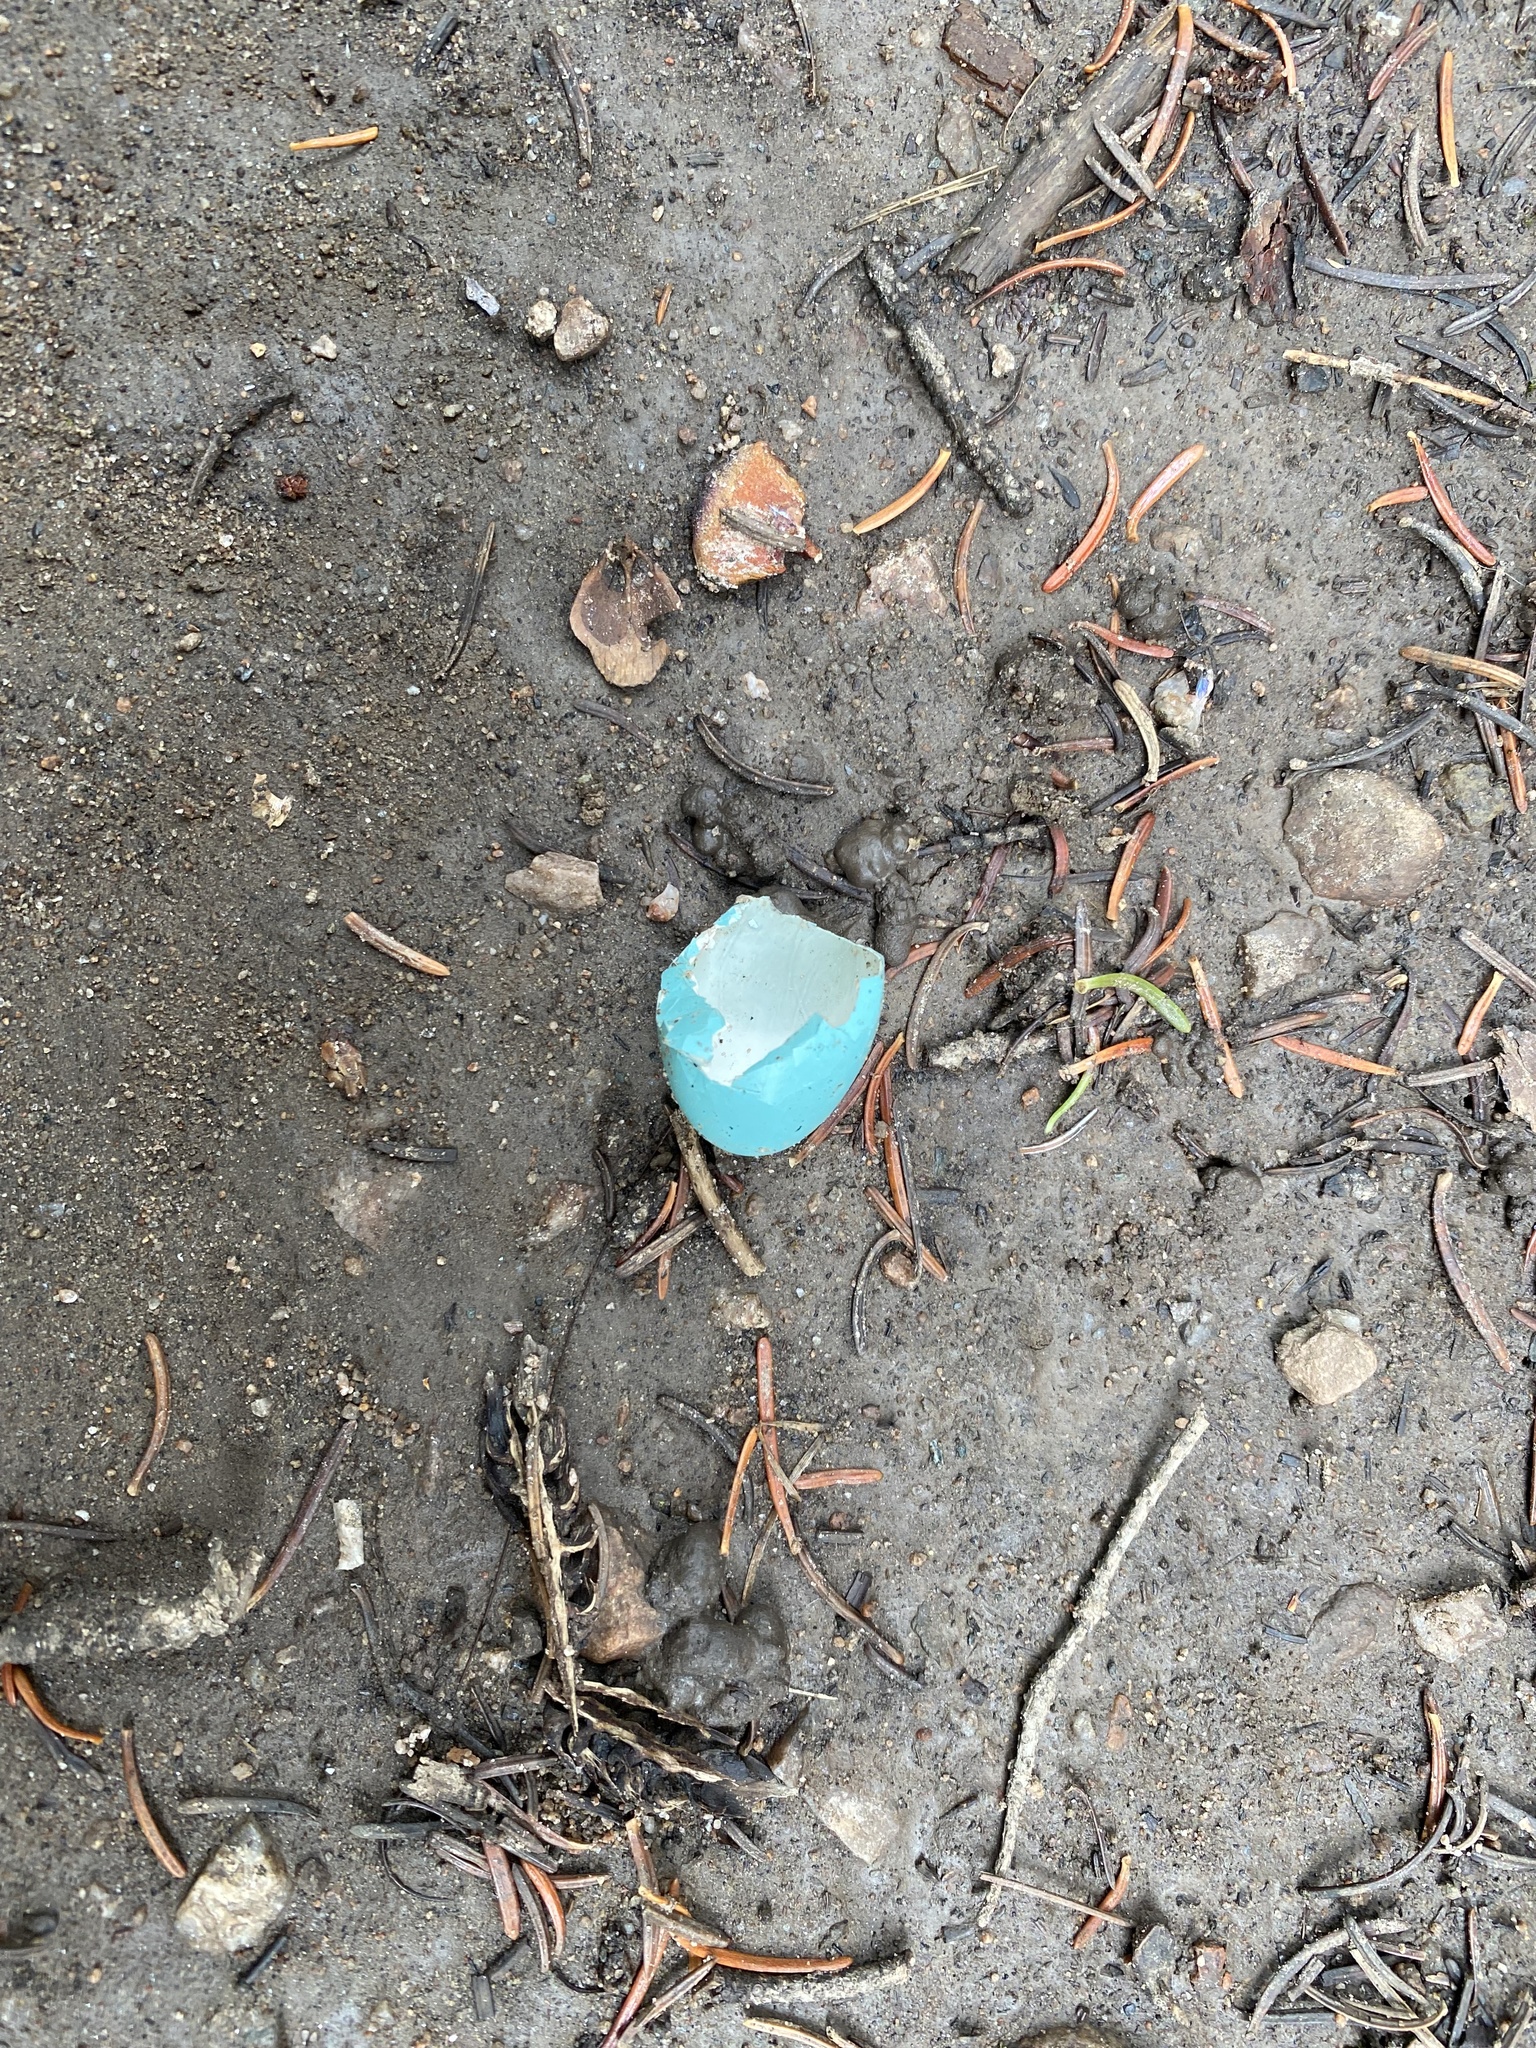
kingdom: Animalia
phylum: Chordata
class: Aves
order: Passeriformes
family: Turdidae
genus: Turdus
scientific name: Turdus migratorius
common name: American robin
